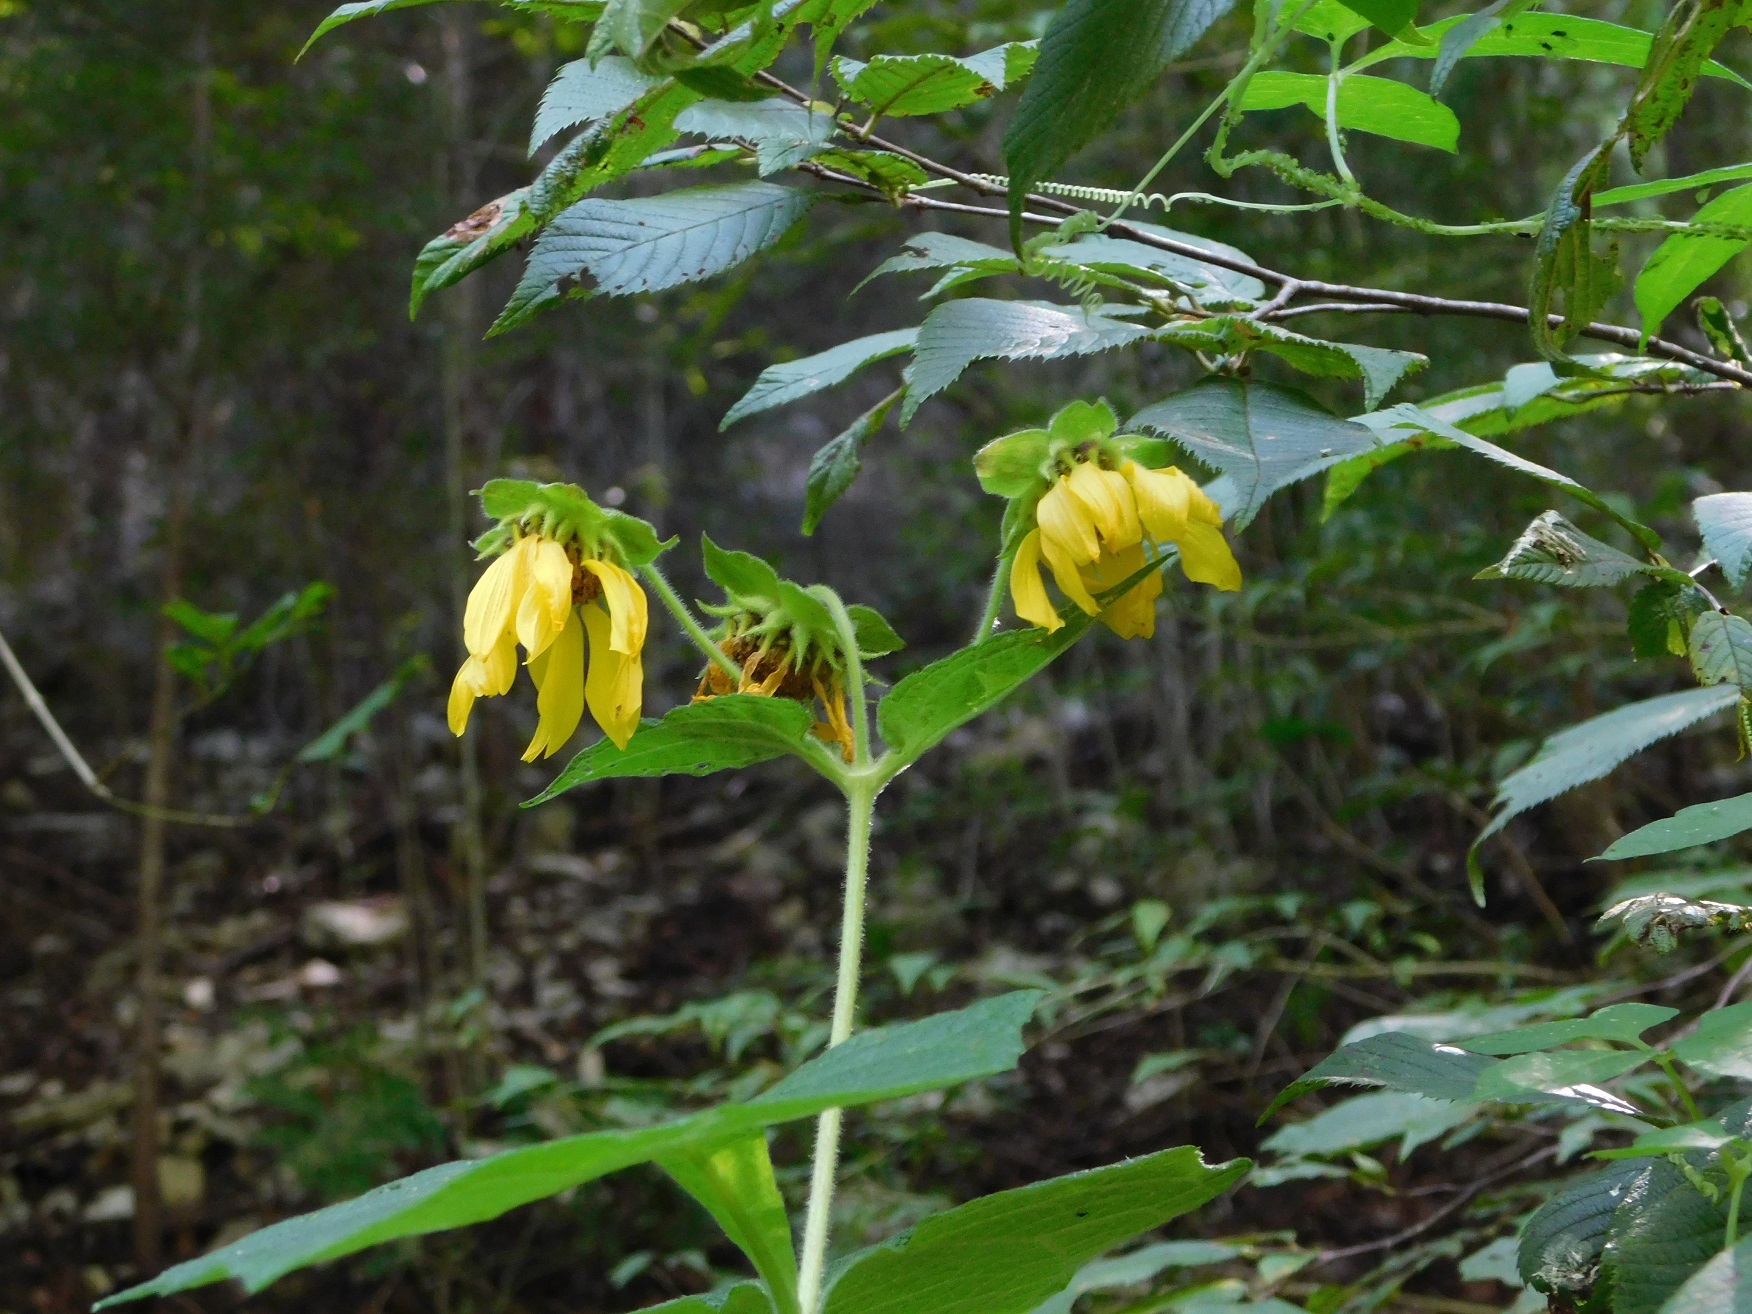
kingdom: Plantae
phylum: Tracheophyta
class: Magnoliopsida
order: Asterales
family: Asteraceae
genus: Smallanthus
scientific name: Smallanthus maculatus
